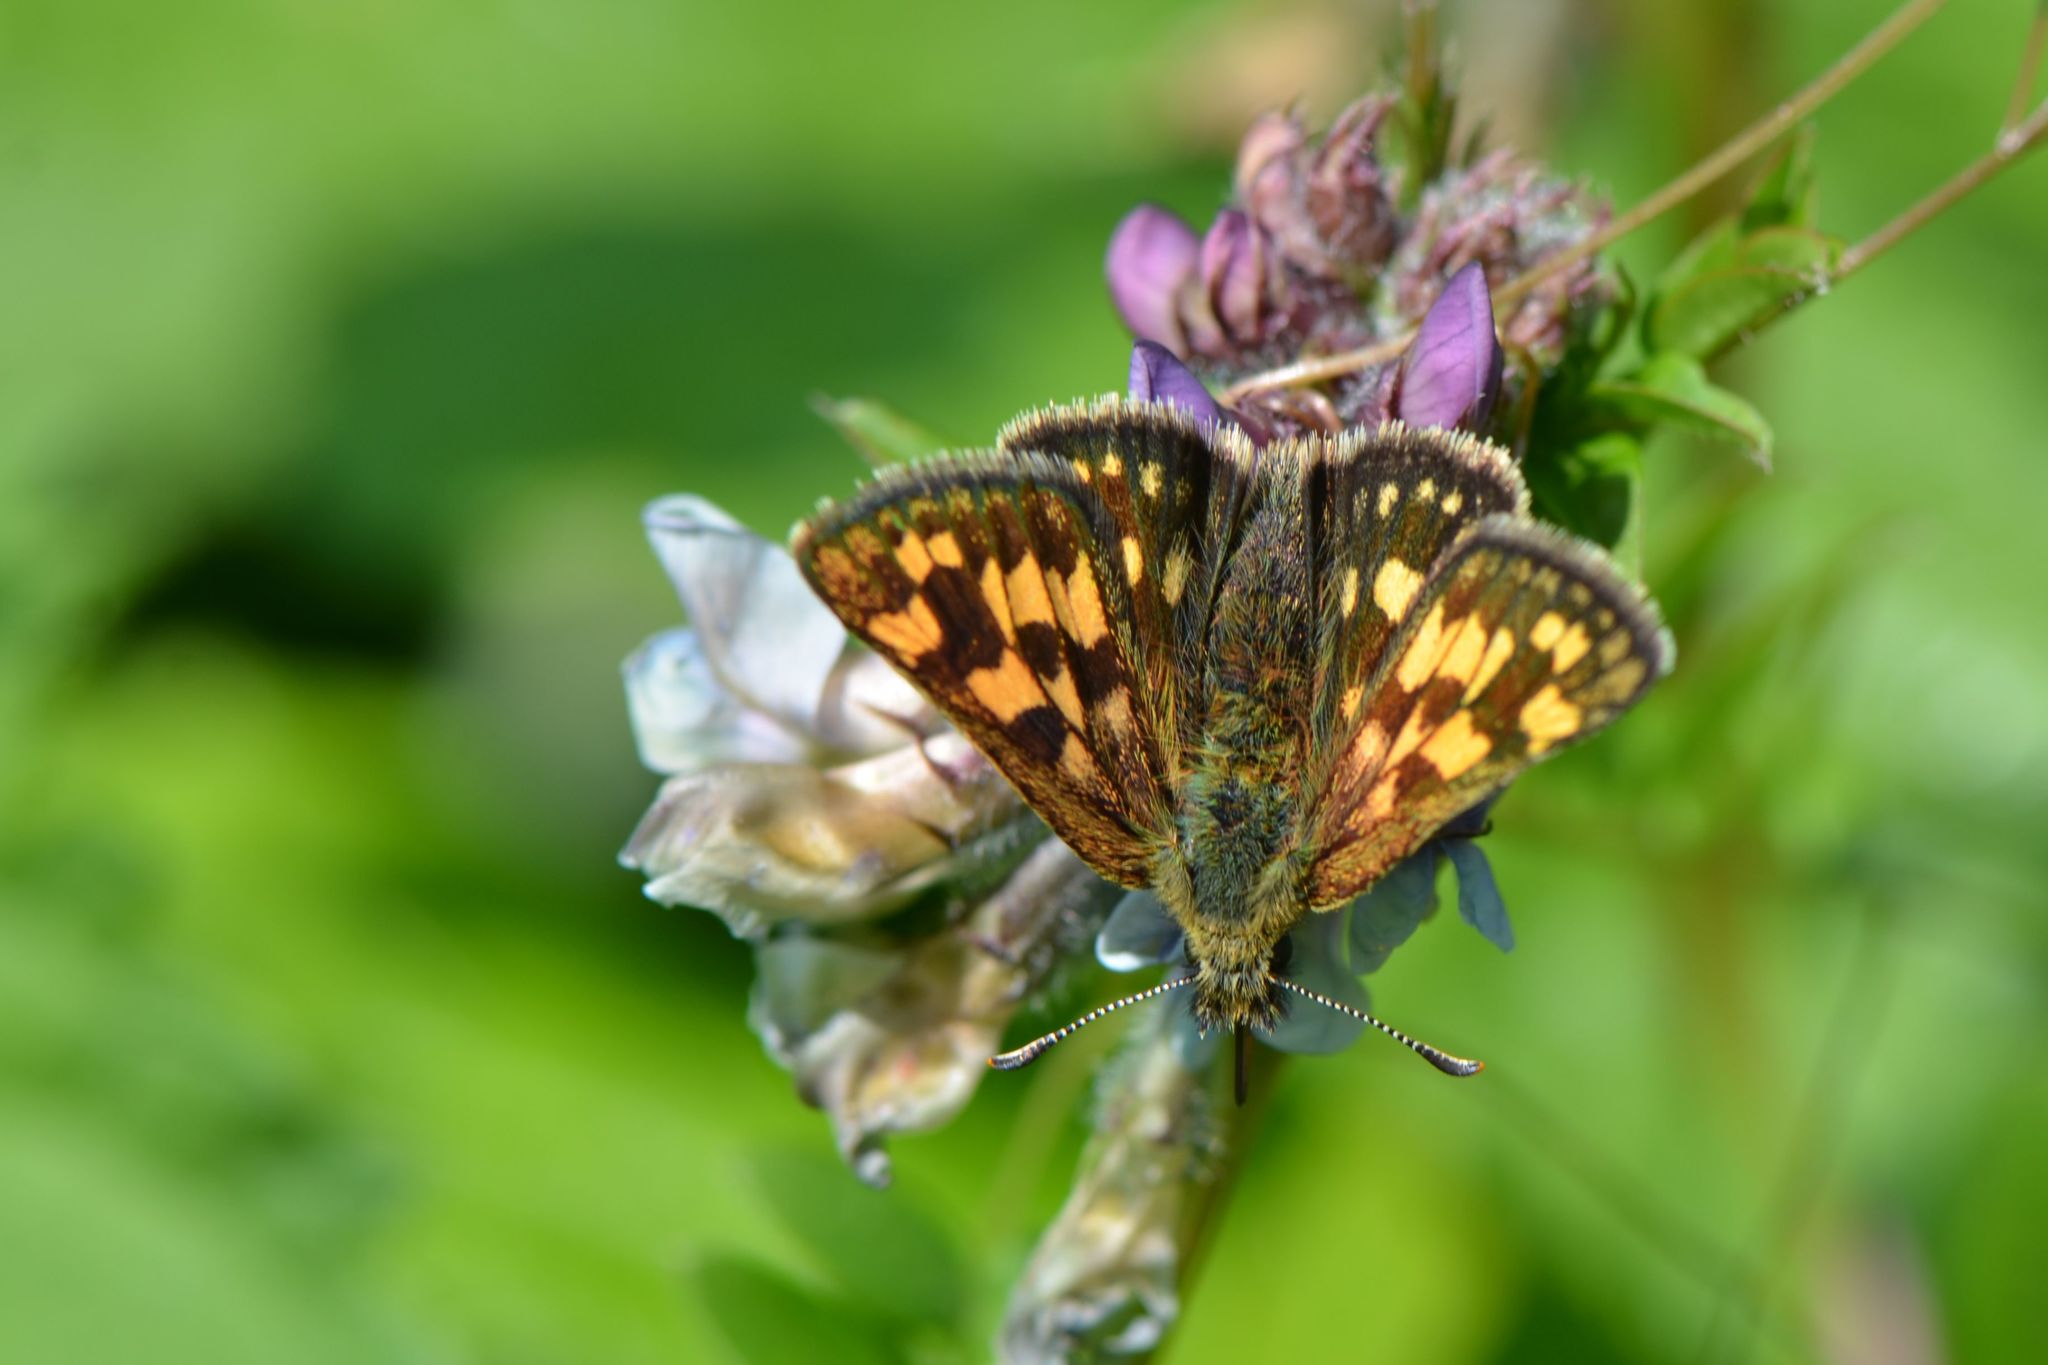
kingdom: Animalia
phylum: Arthropoda
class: Insecta
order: Lepidoptera
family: Hesperiidae
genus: Carterocephalus
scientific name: Carterocephalus palaemon
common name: Chequered skipper
